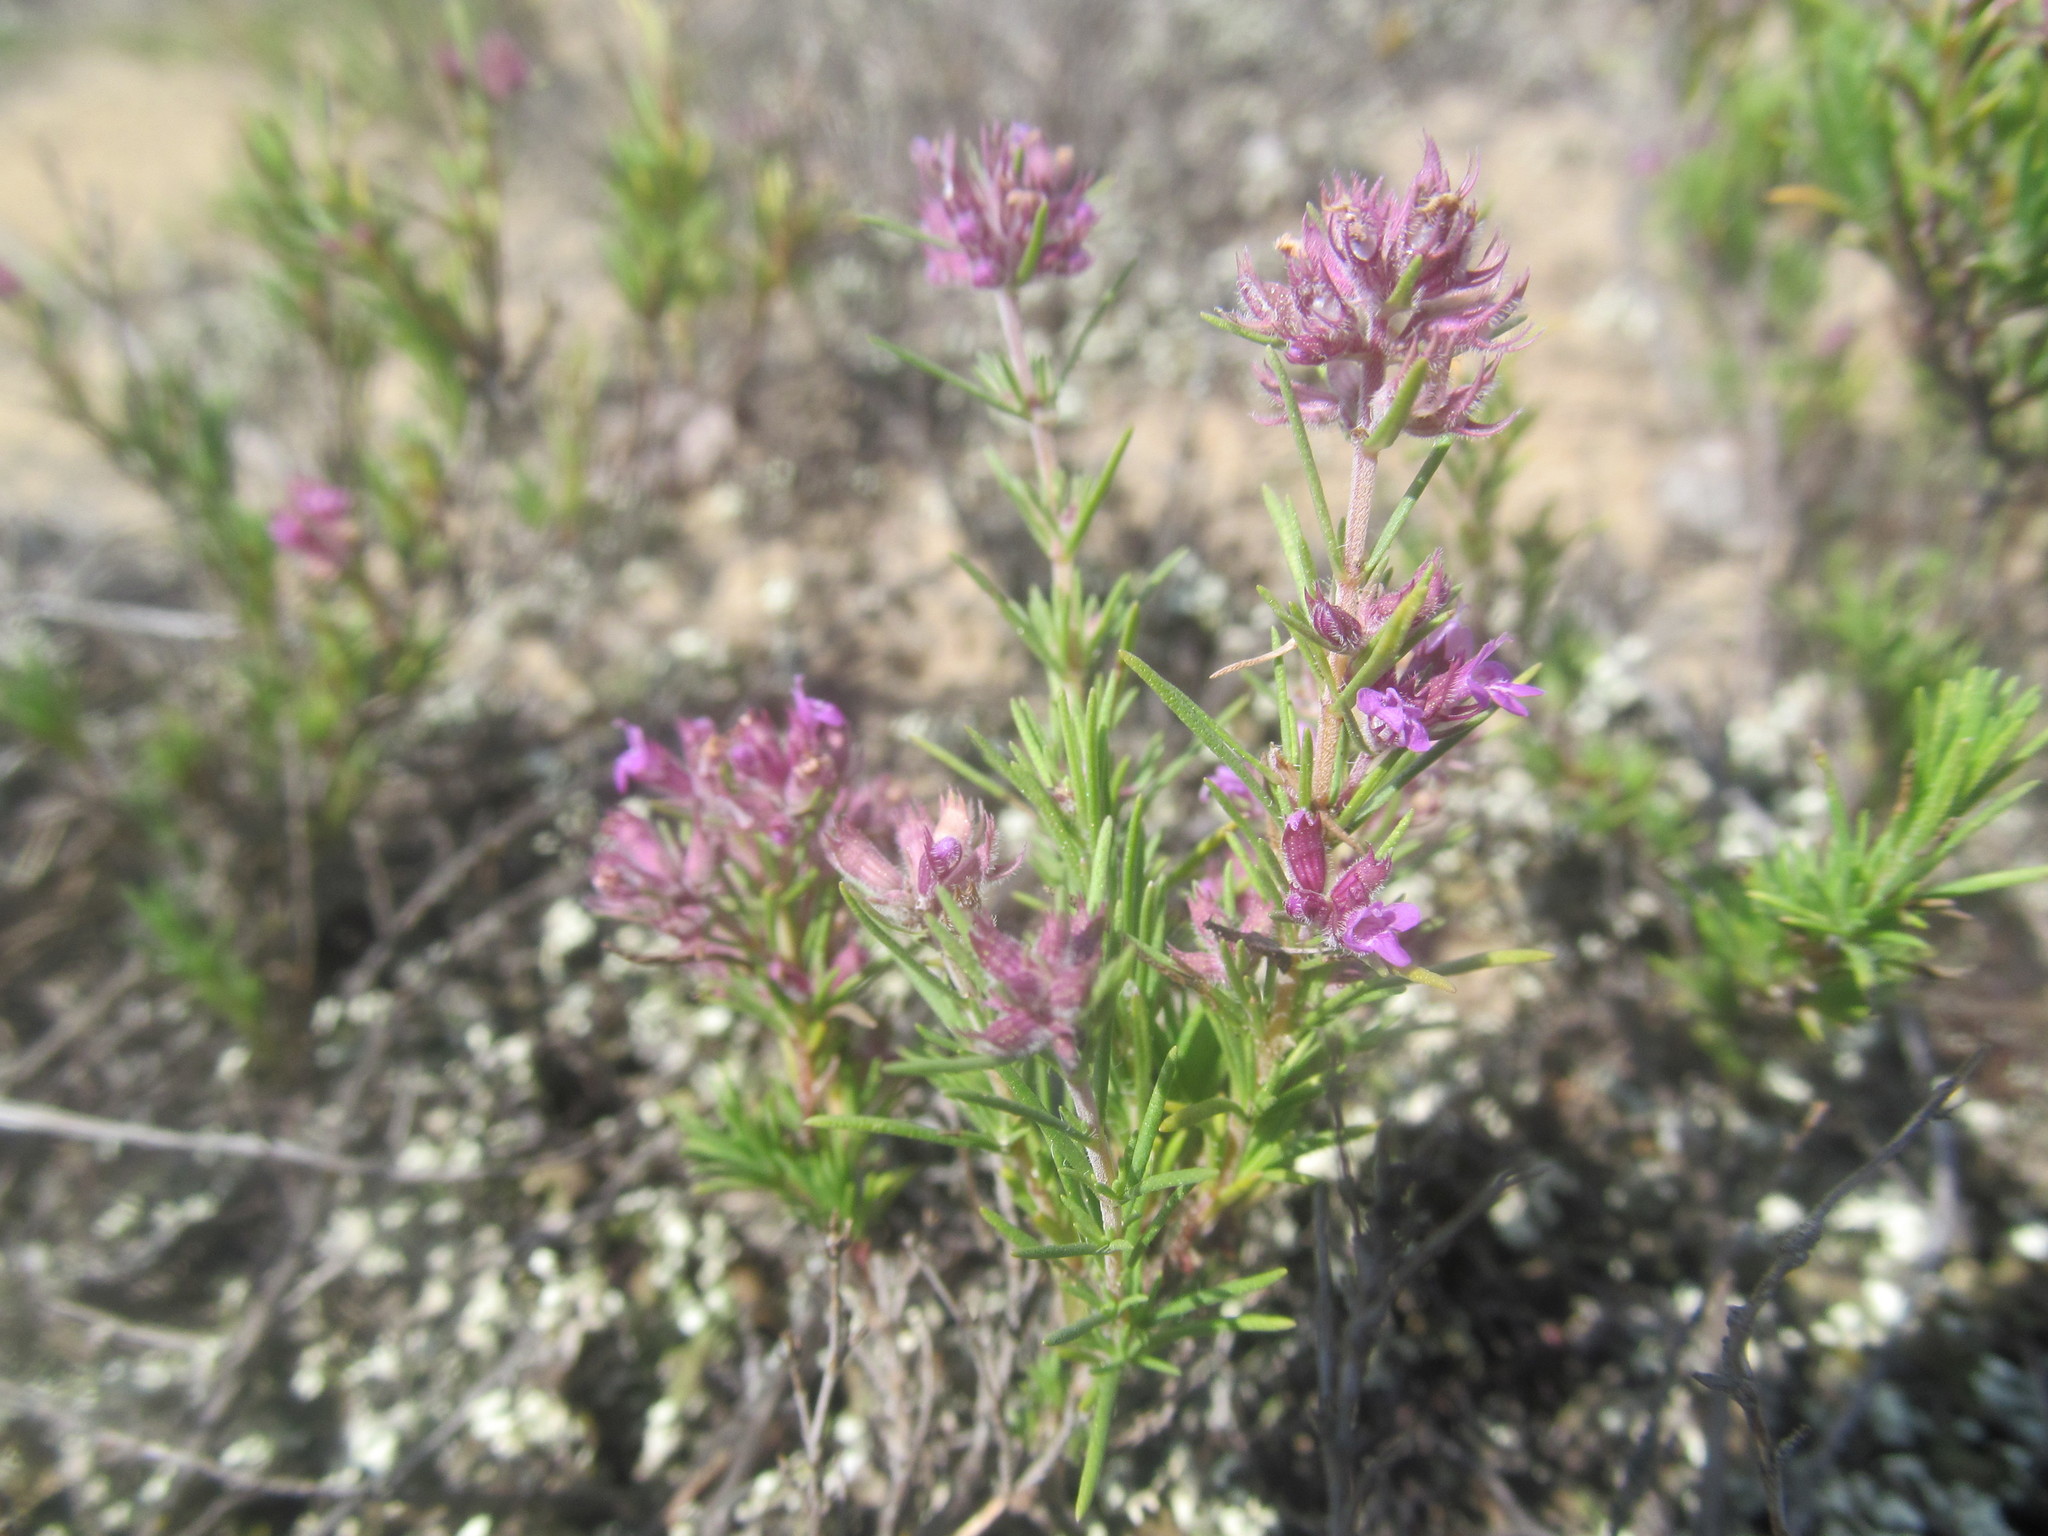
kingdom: Plantae
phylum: Tracheophyta
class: Magnoliopsida
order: Lamiales
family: Lamiaceae
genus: Thymus
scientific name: Thymus borysthenicus
